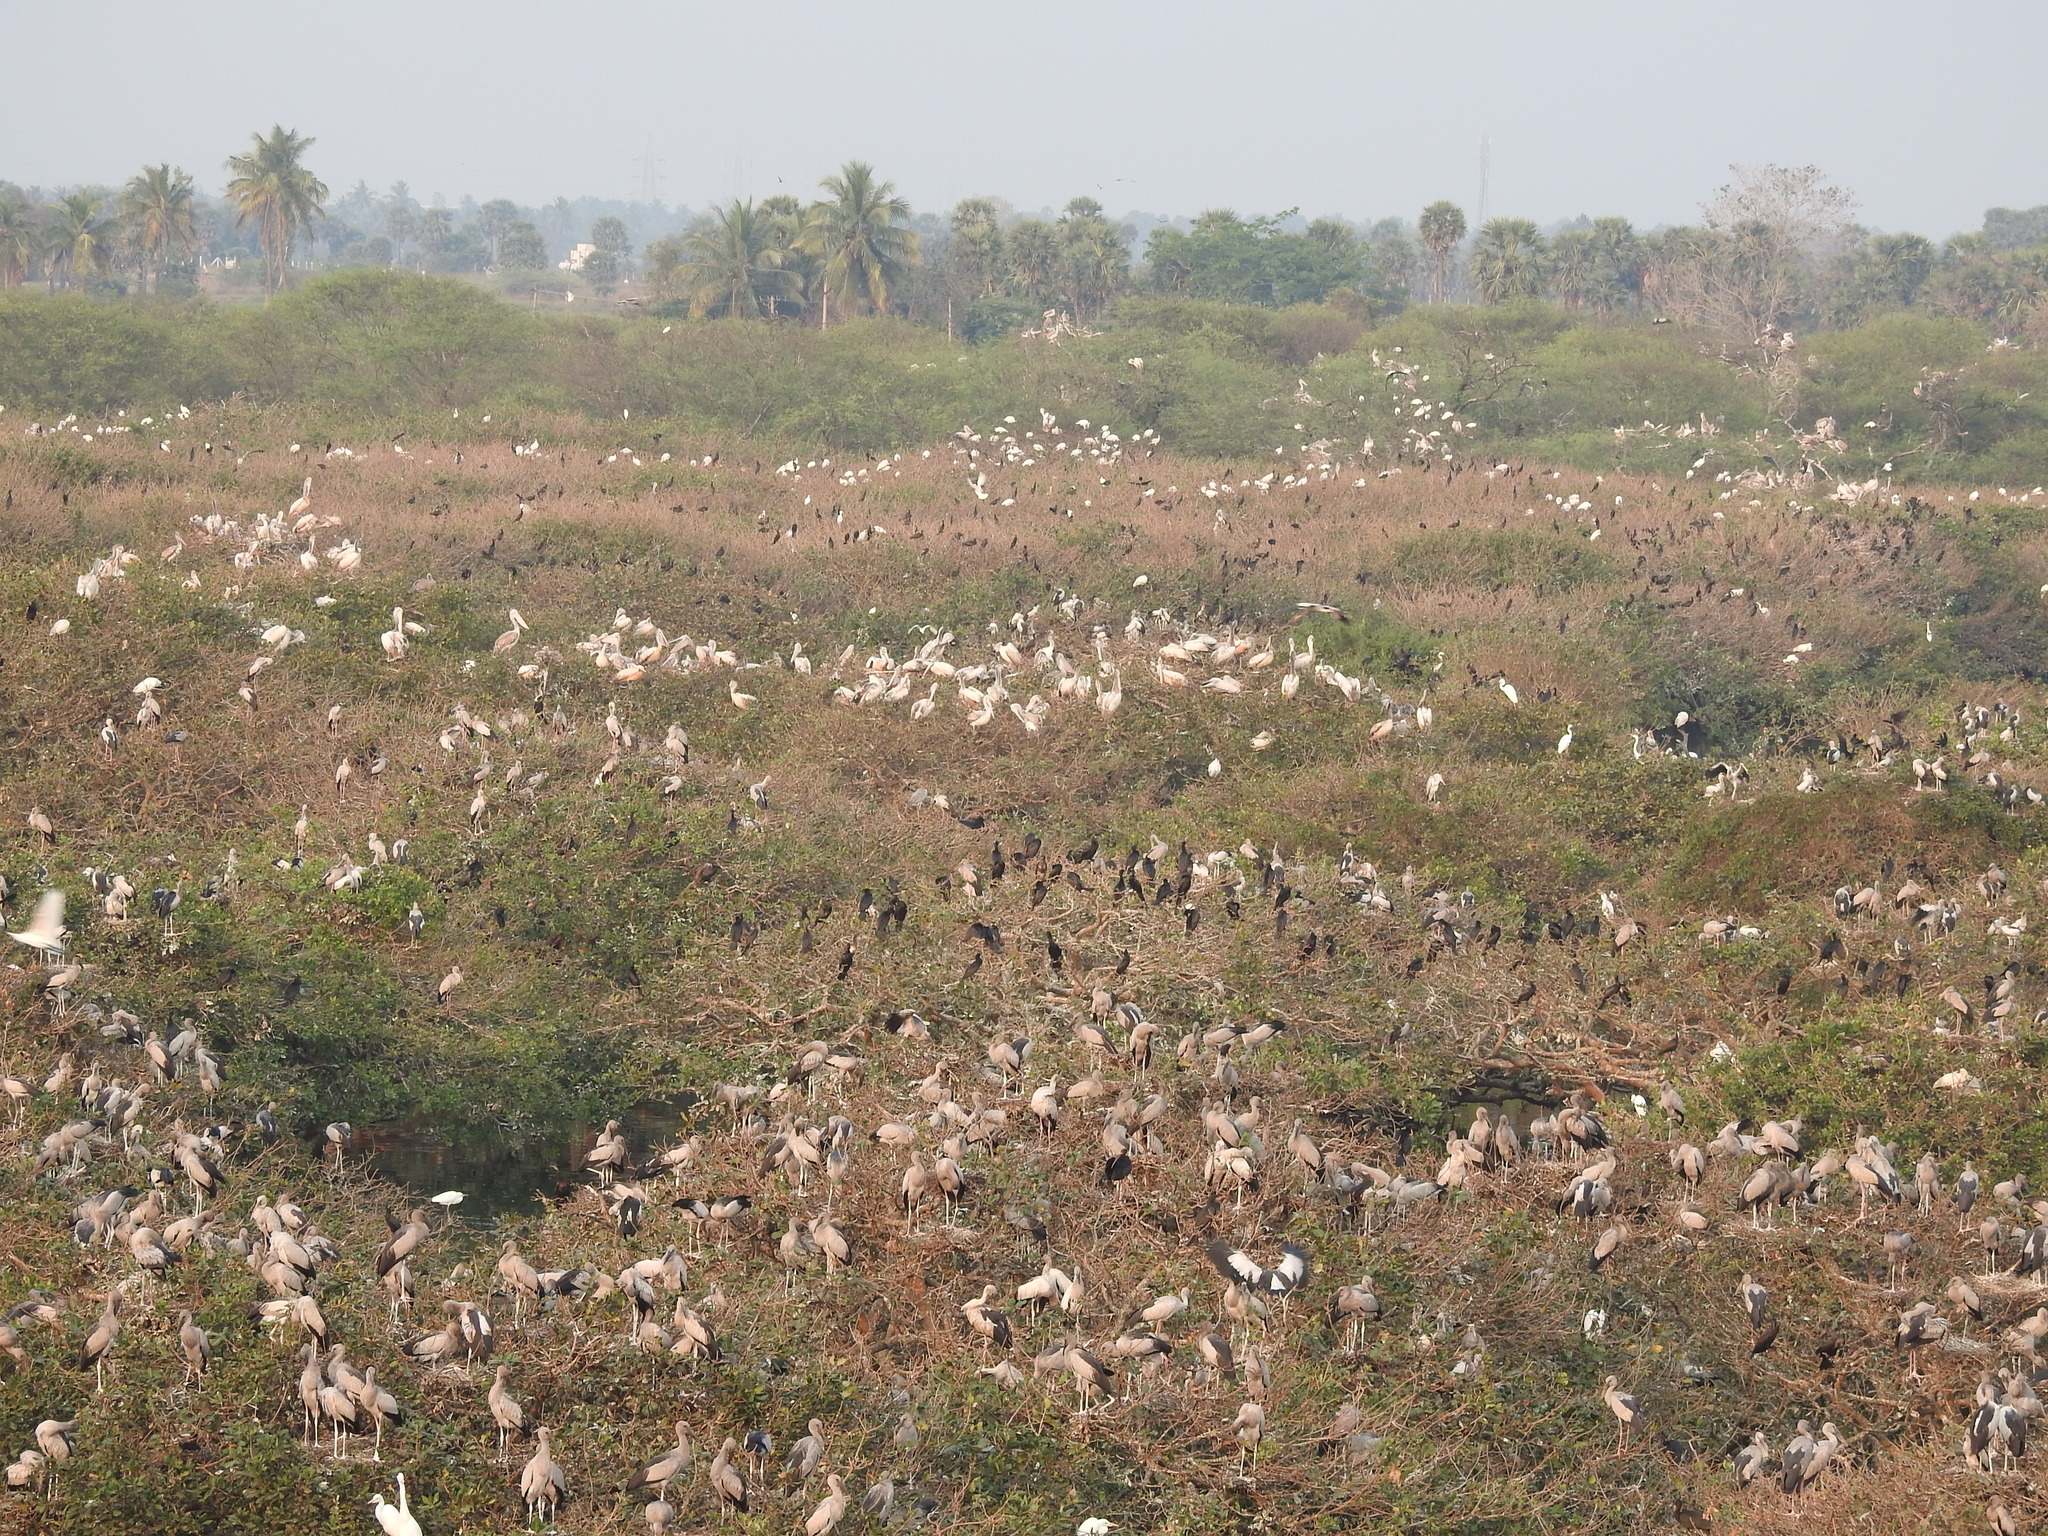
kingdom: Animalia
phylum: Chordata
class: Aves
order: Ciconiiformes
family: Ciconiidae
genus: Anastomus
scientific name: Anastomus oscitans
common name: Asian openbill
